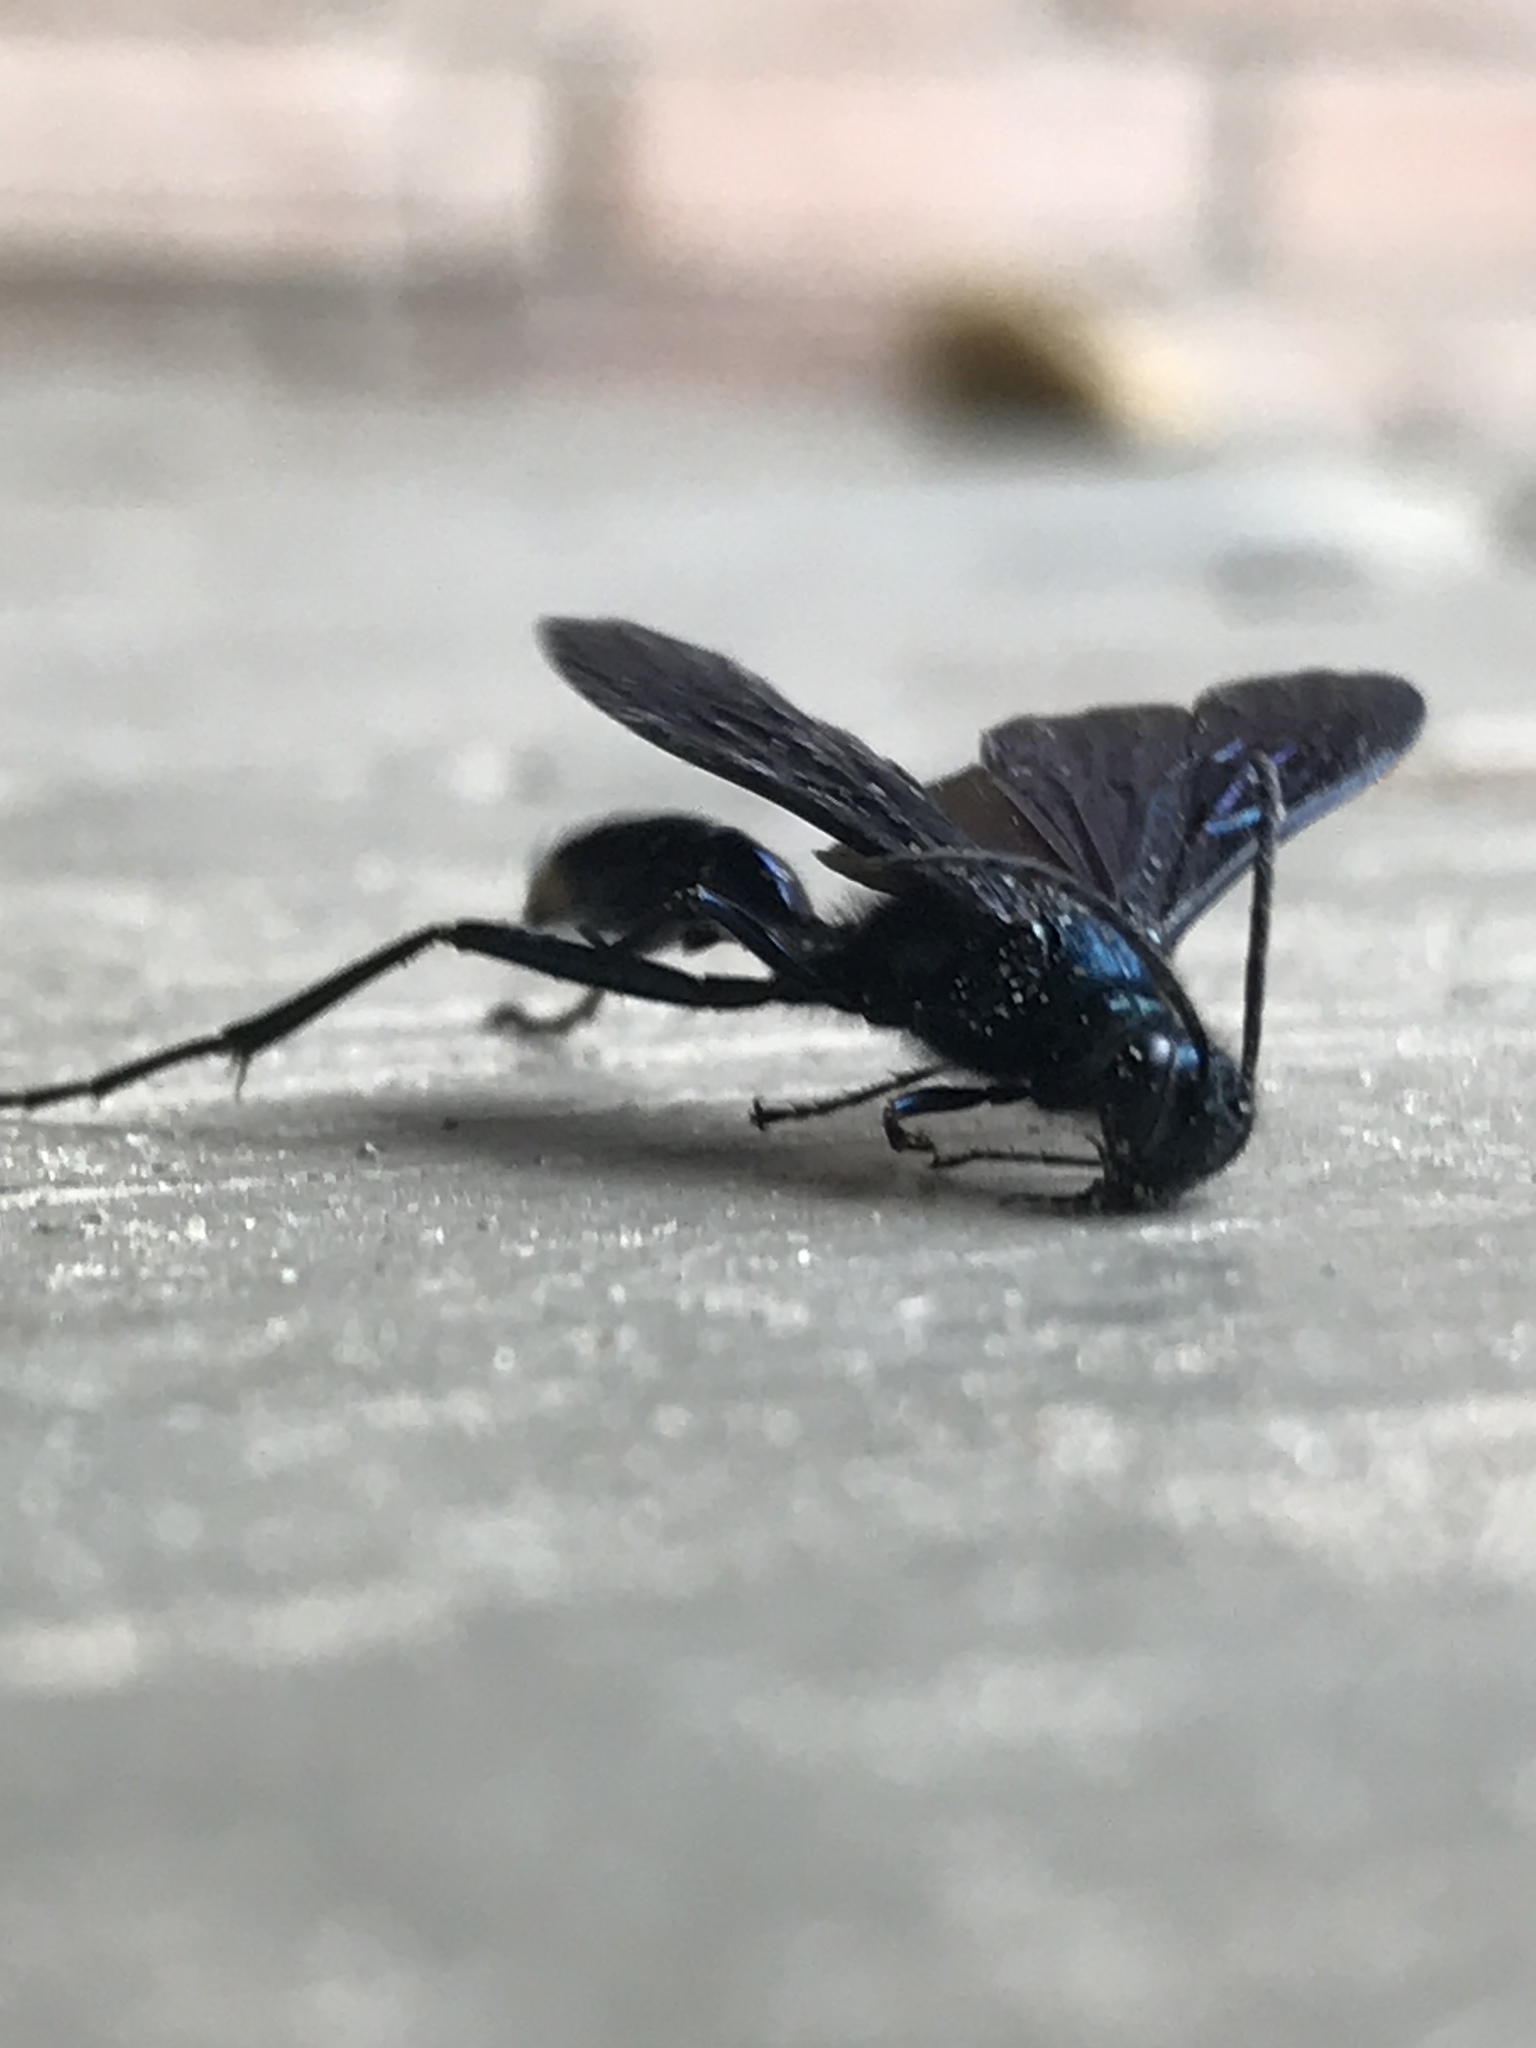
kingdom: Animalia
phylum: Arthropoda
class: Insecta
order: Hymenoptera
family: Sphecidae
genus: Chalybion
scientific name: Chalybion californicum
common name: Mud dauber
